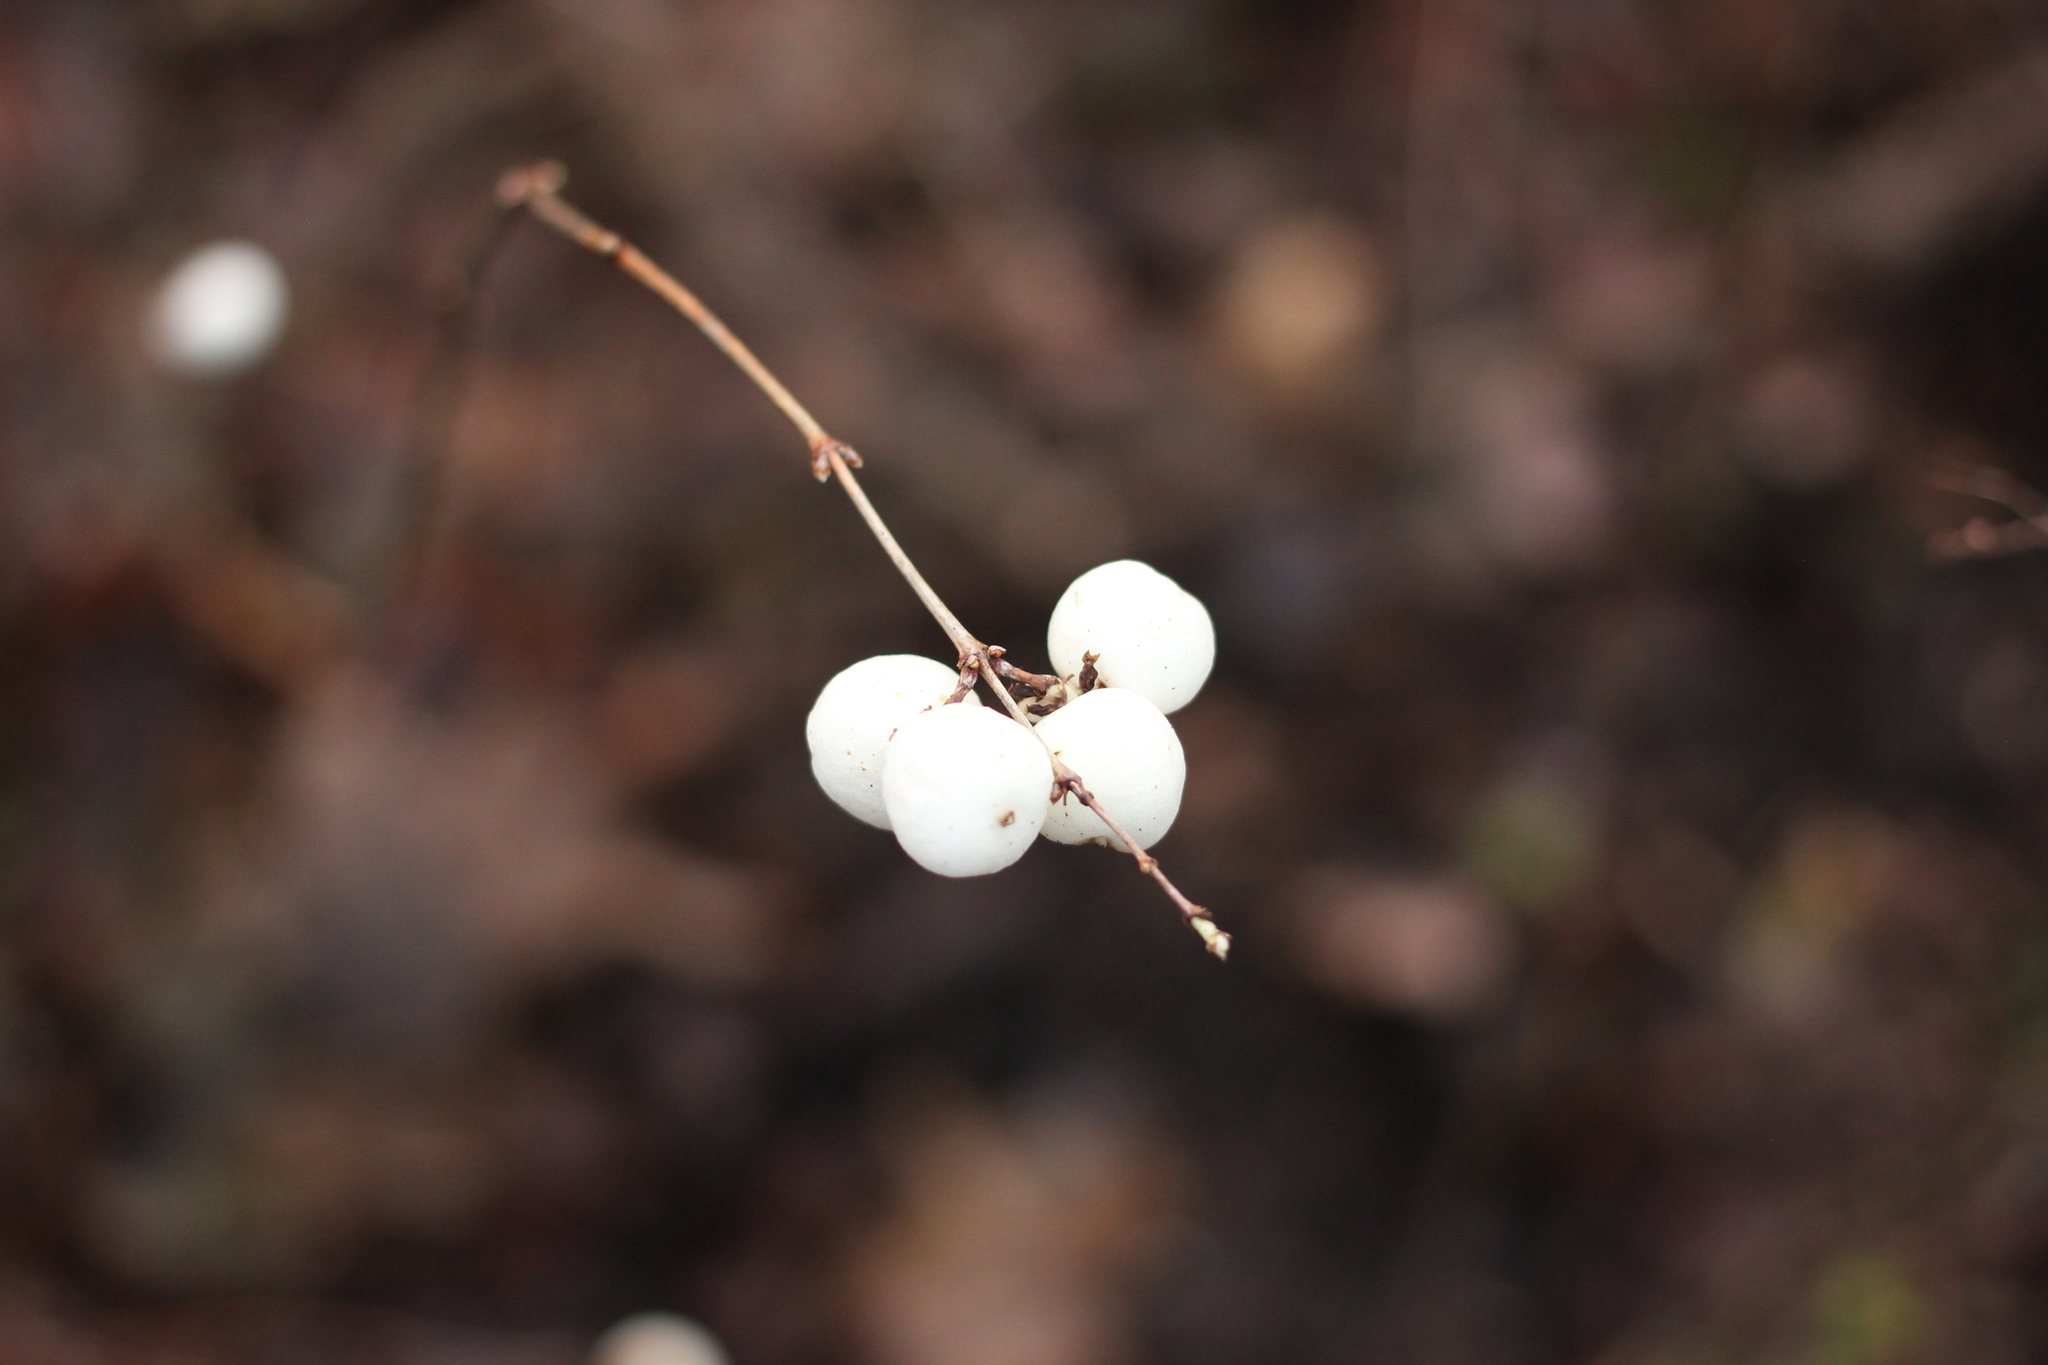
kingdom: Plantae
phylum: Tracheophyta
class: Magnoliopsida
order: Dipsacales
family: Caprifoliaceae
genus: Symphoricarpos
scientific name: Symphoricarpos albus
